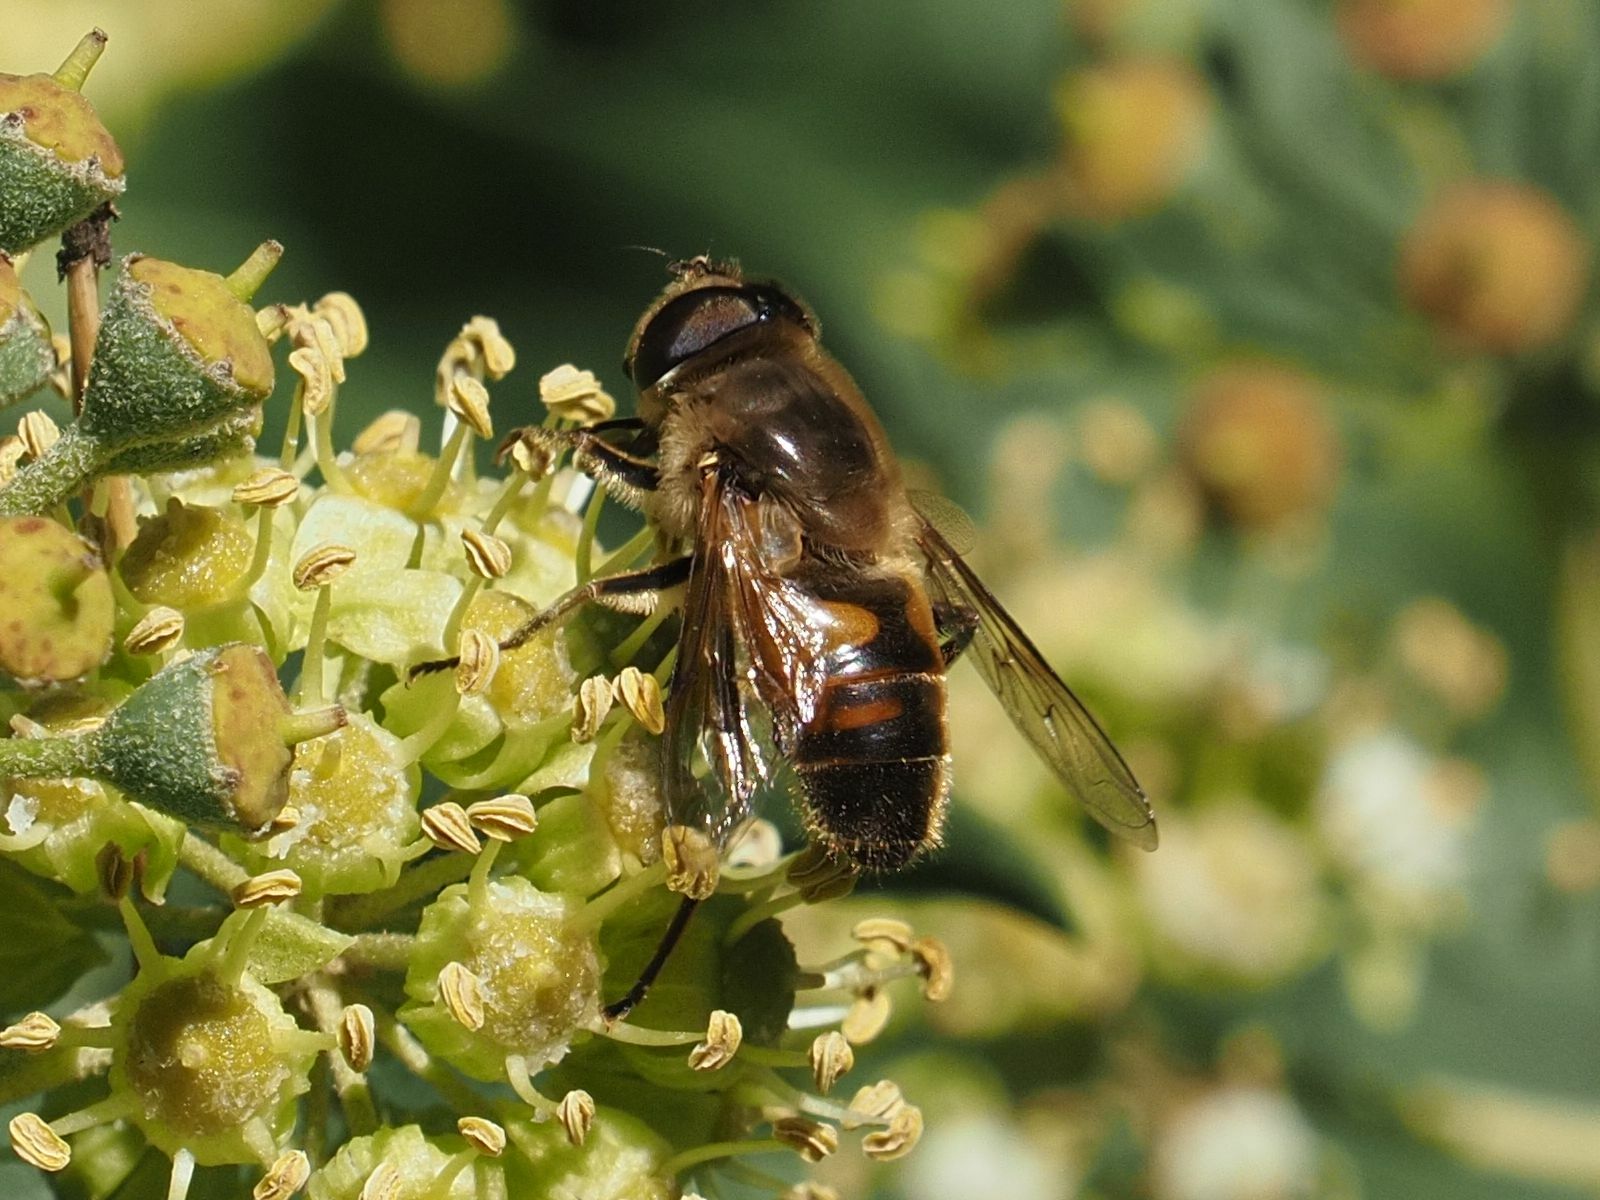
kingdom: Animalia
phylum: Arthropoda
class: Insecta
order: Diptera
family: Syrphidae
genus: Eristalis
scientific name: Eristalis tenax
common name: Drone fly
